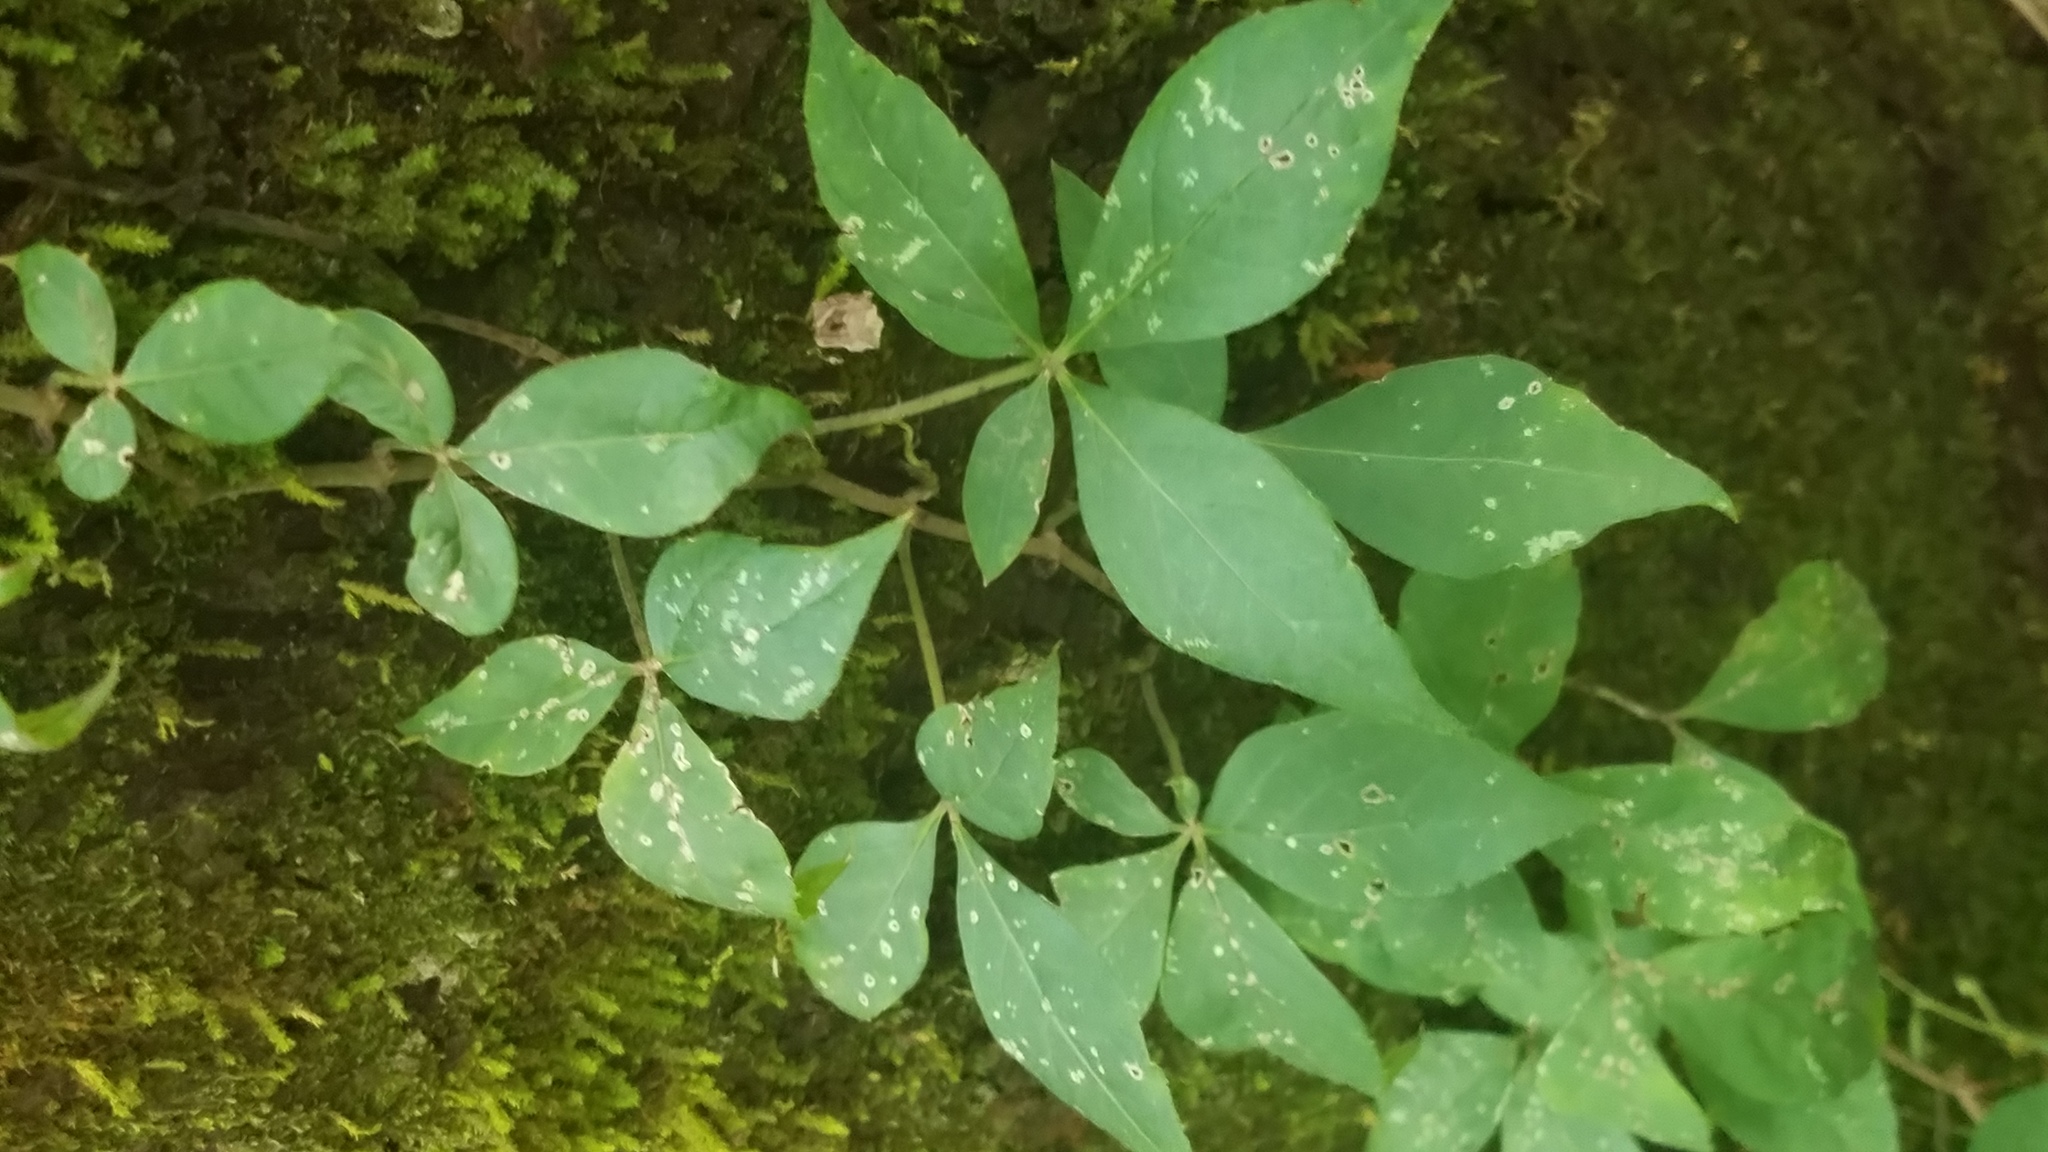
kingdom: Plantae
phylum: Tracheophyta
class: Magnoliopsida
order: Vitales
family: Vitaceae
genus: Parthenocissus
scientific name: Parthenocissus quinquefolia
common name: Virginia-creeper
